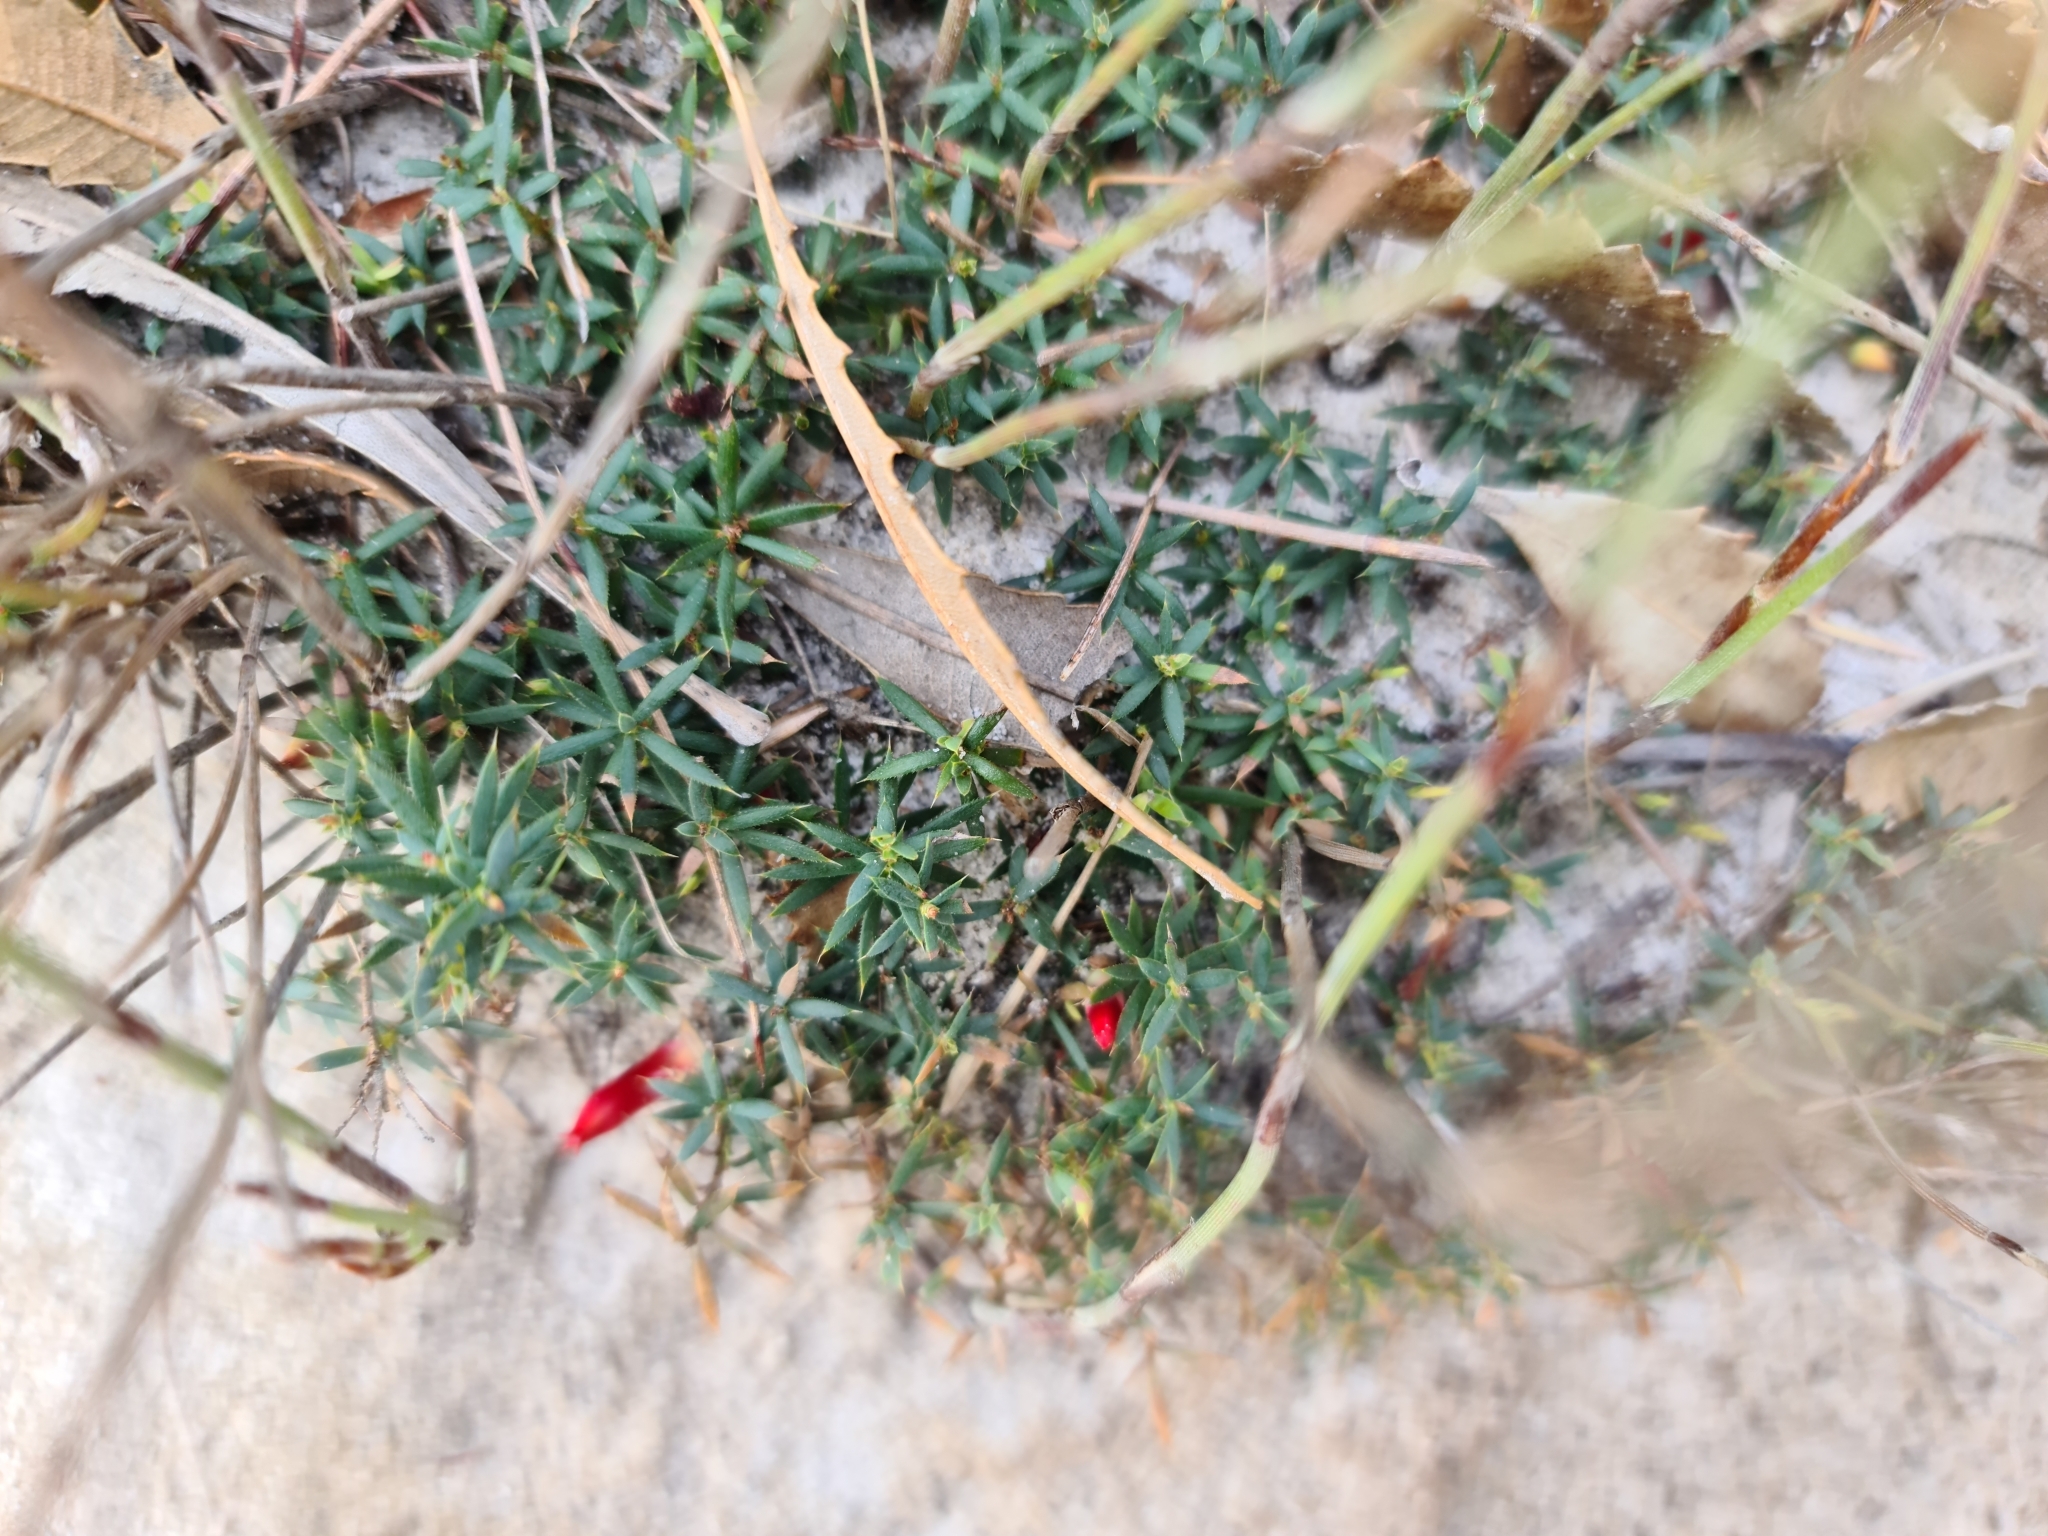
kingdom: Plantae
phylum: Tracheophyta
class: Magnoliopsida
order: Ericales
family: Ericaceae
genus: Styphelia
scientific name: Styphelia humifusa
